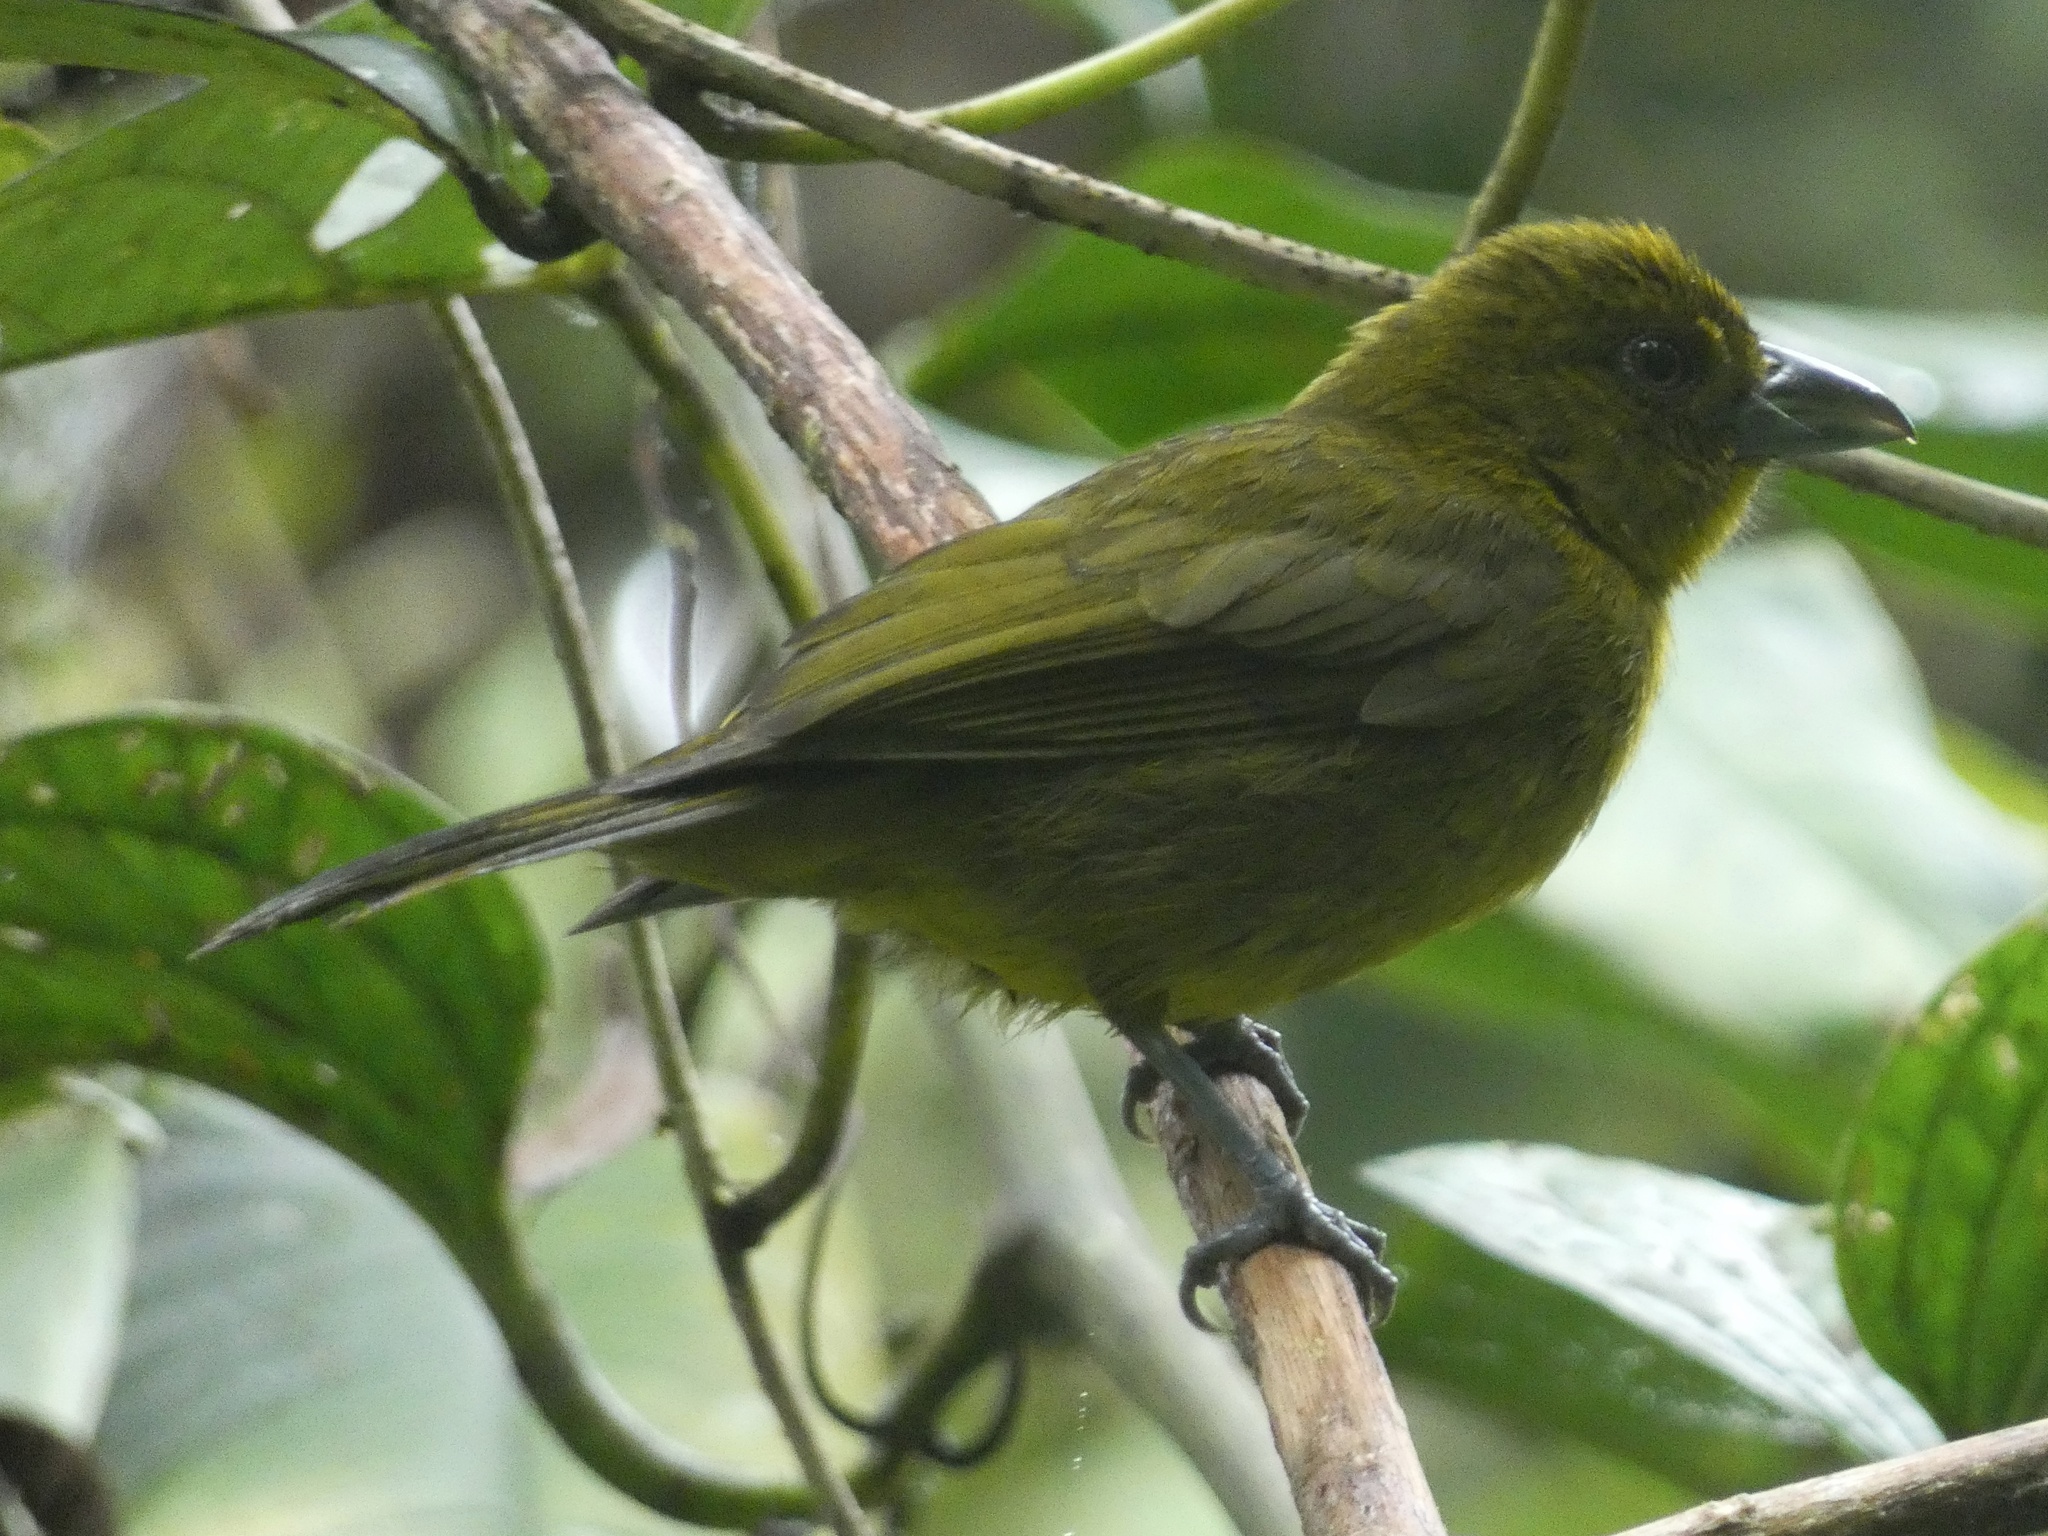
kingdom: Animalia
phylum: Chordata
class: Aves
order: Passeriformes
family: Cardinalidae
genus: Chlorothraupis
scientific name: Chlorothraupis carmioli
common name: Carmiol's tanager
